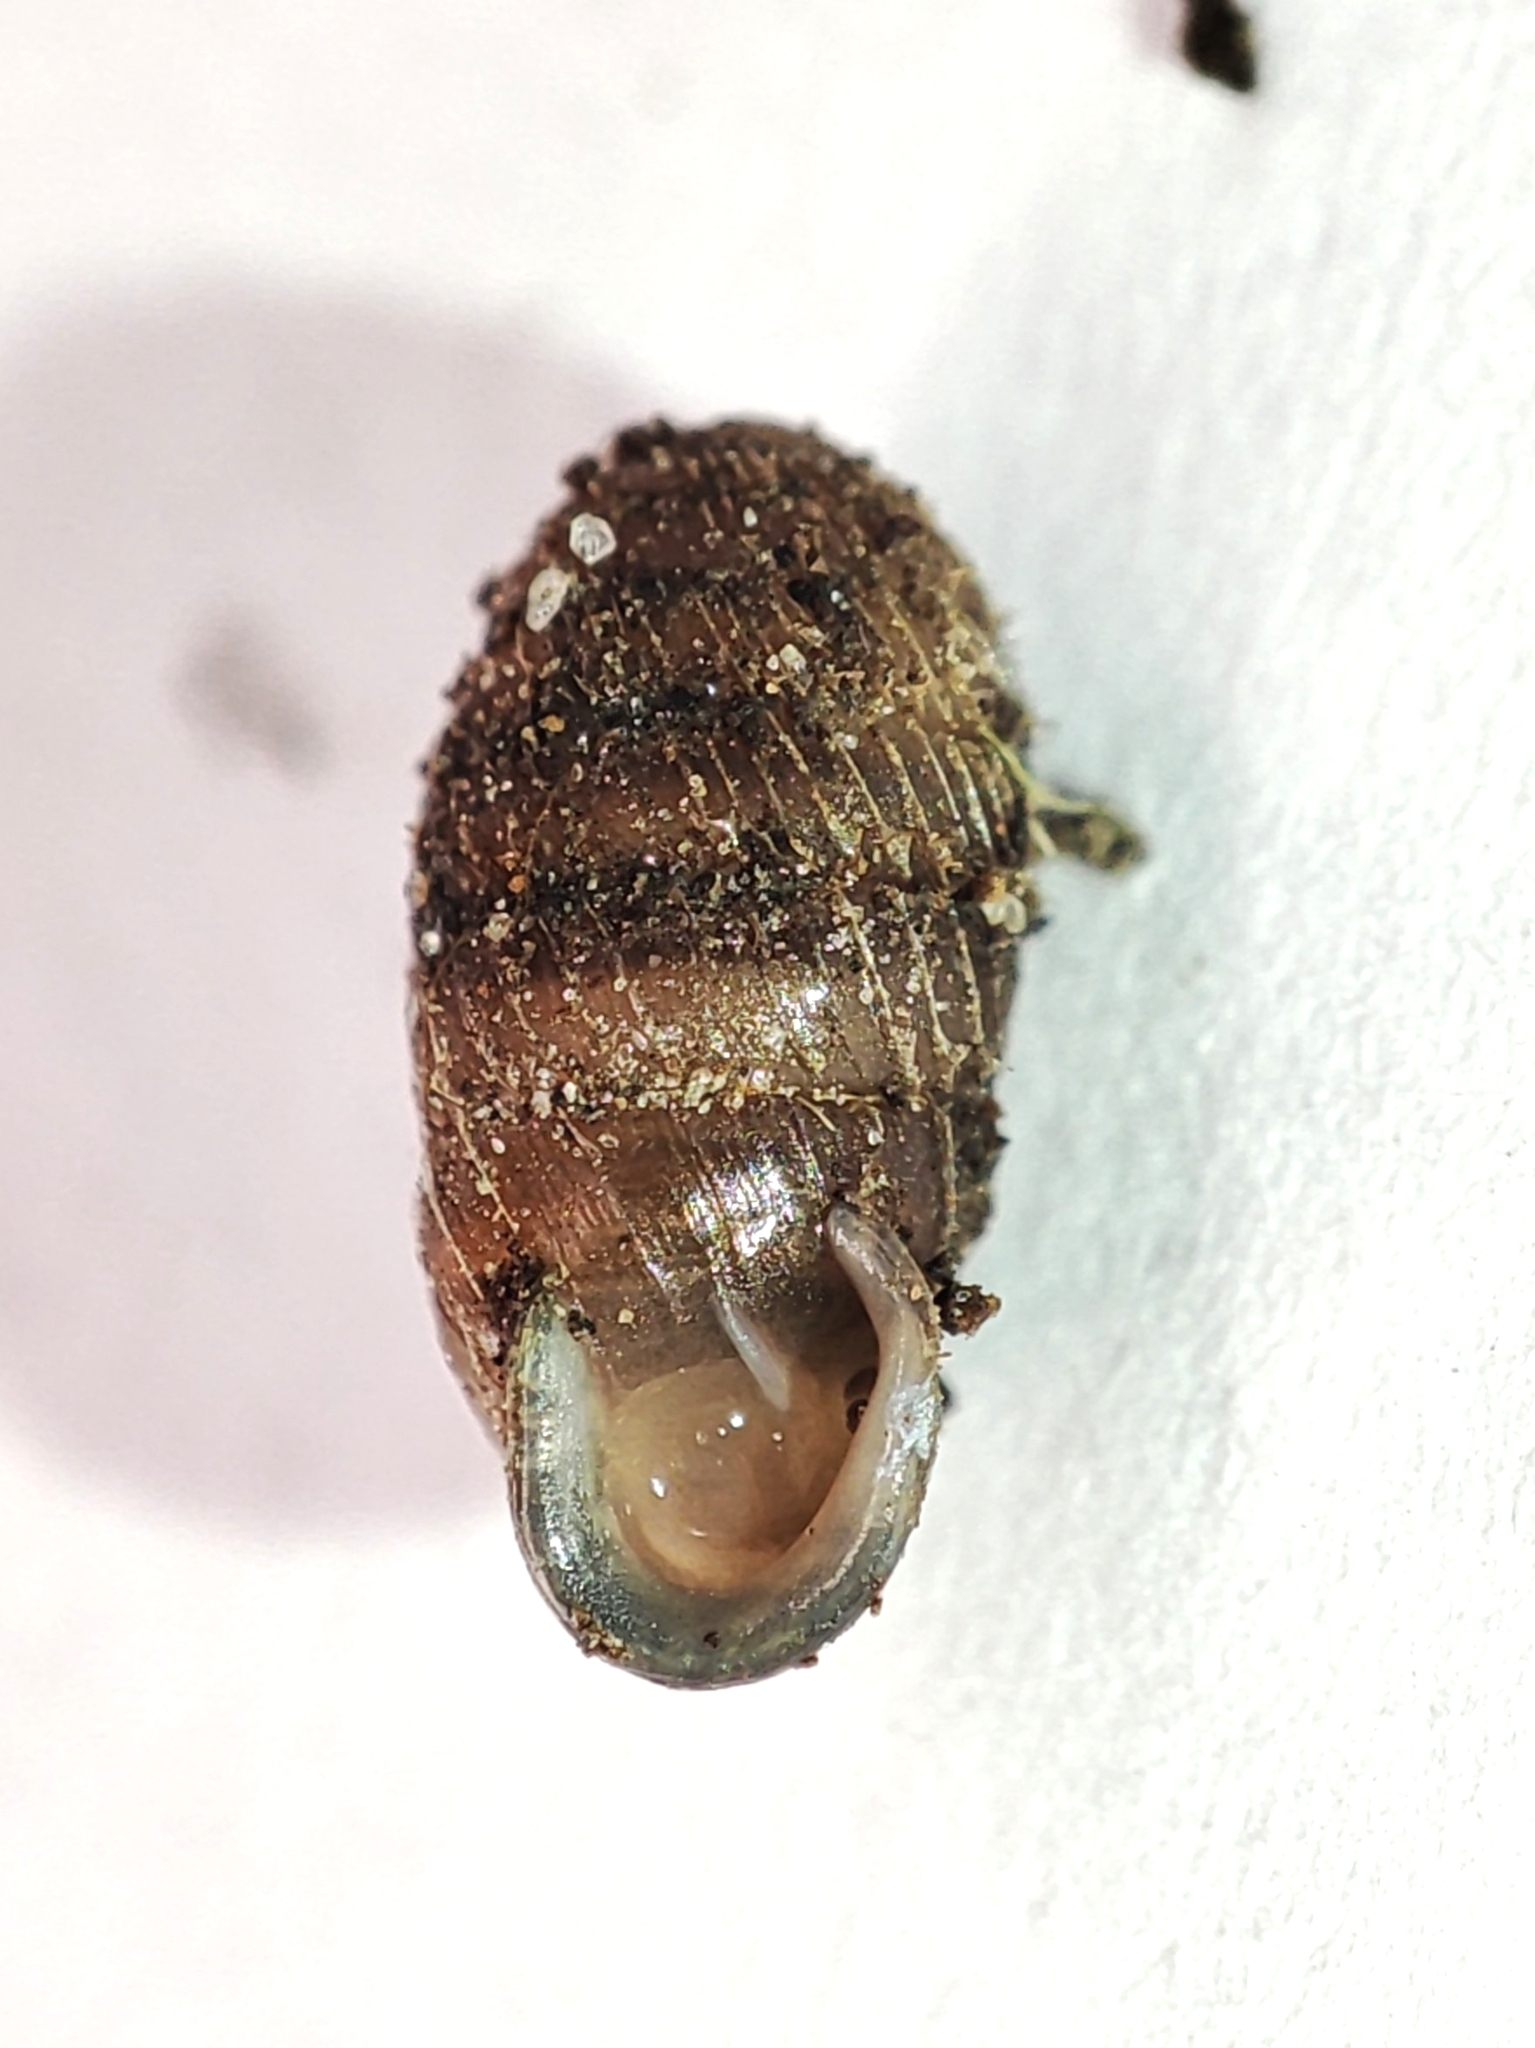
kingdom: Animalia
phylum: Mollusca
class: Gastropoda
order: Stylommatophora
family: Orculidae
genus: Sphyradium
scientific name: Sphyradium doliolum
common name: Tiny drumsnail
